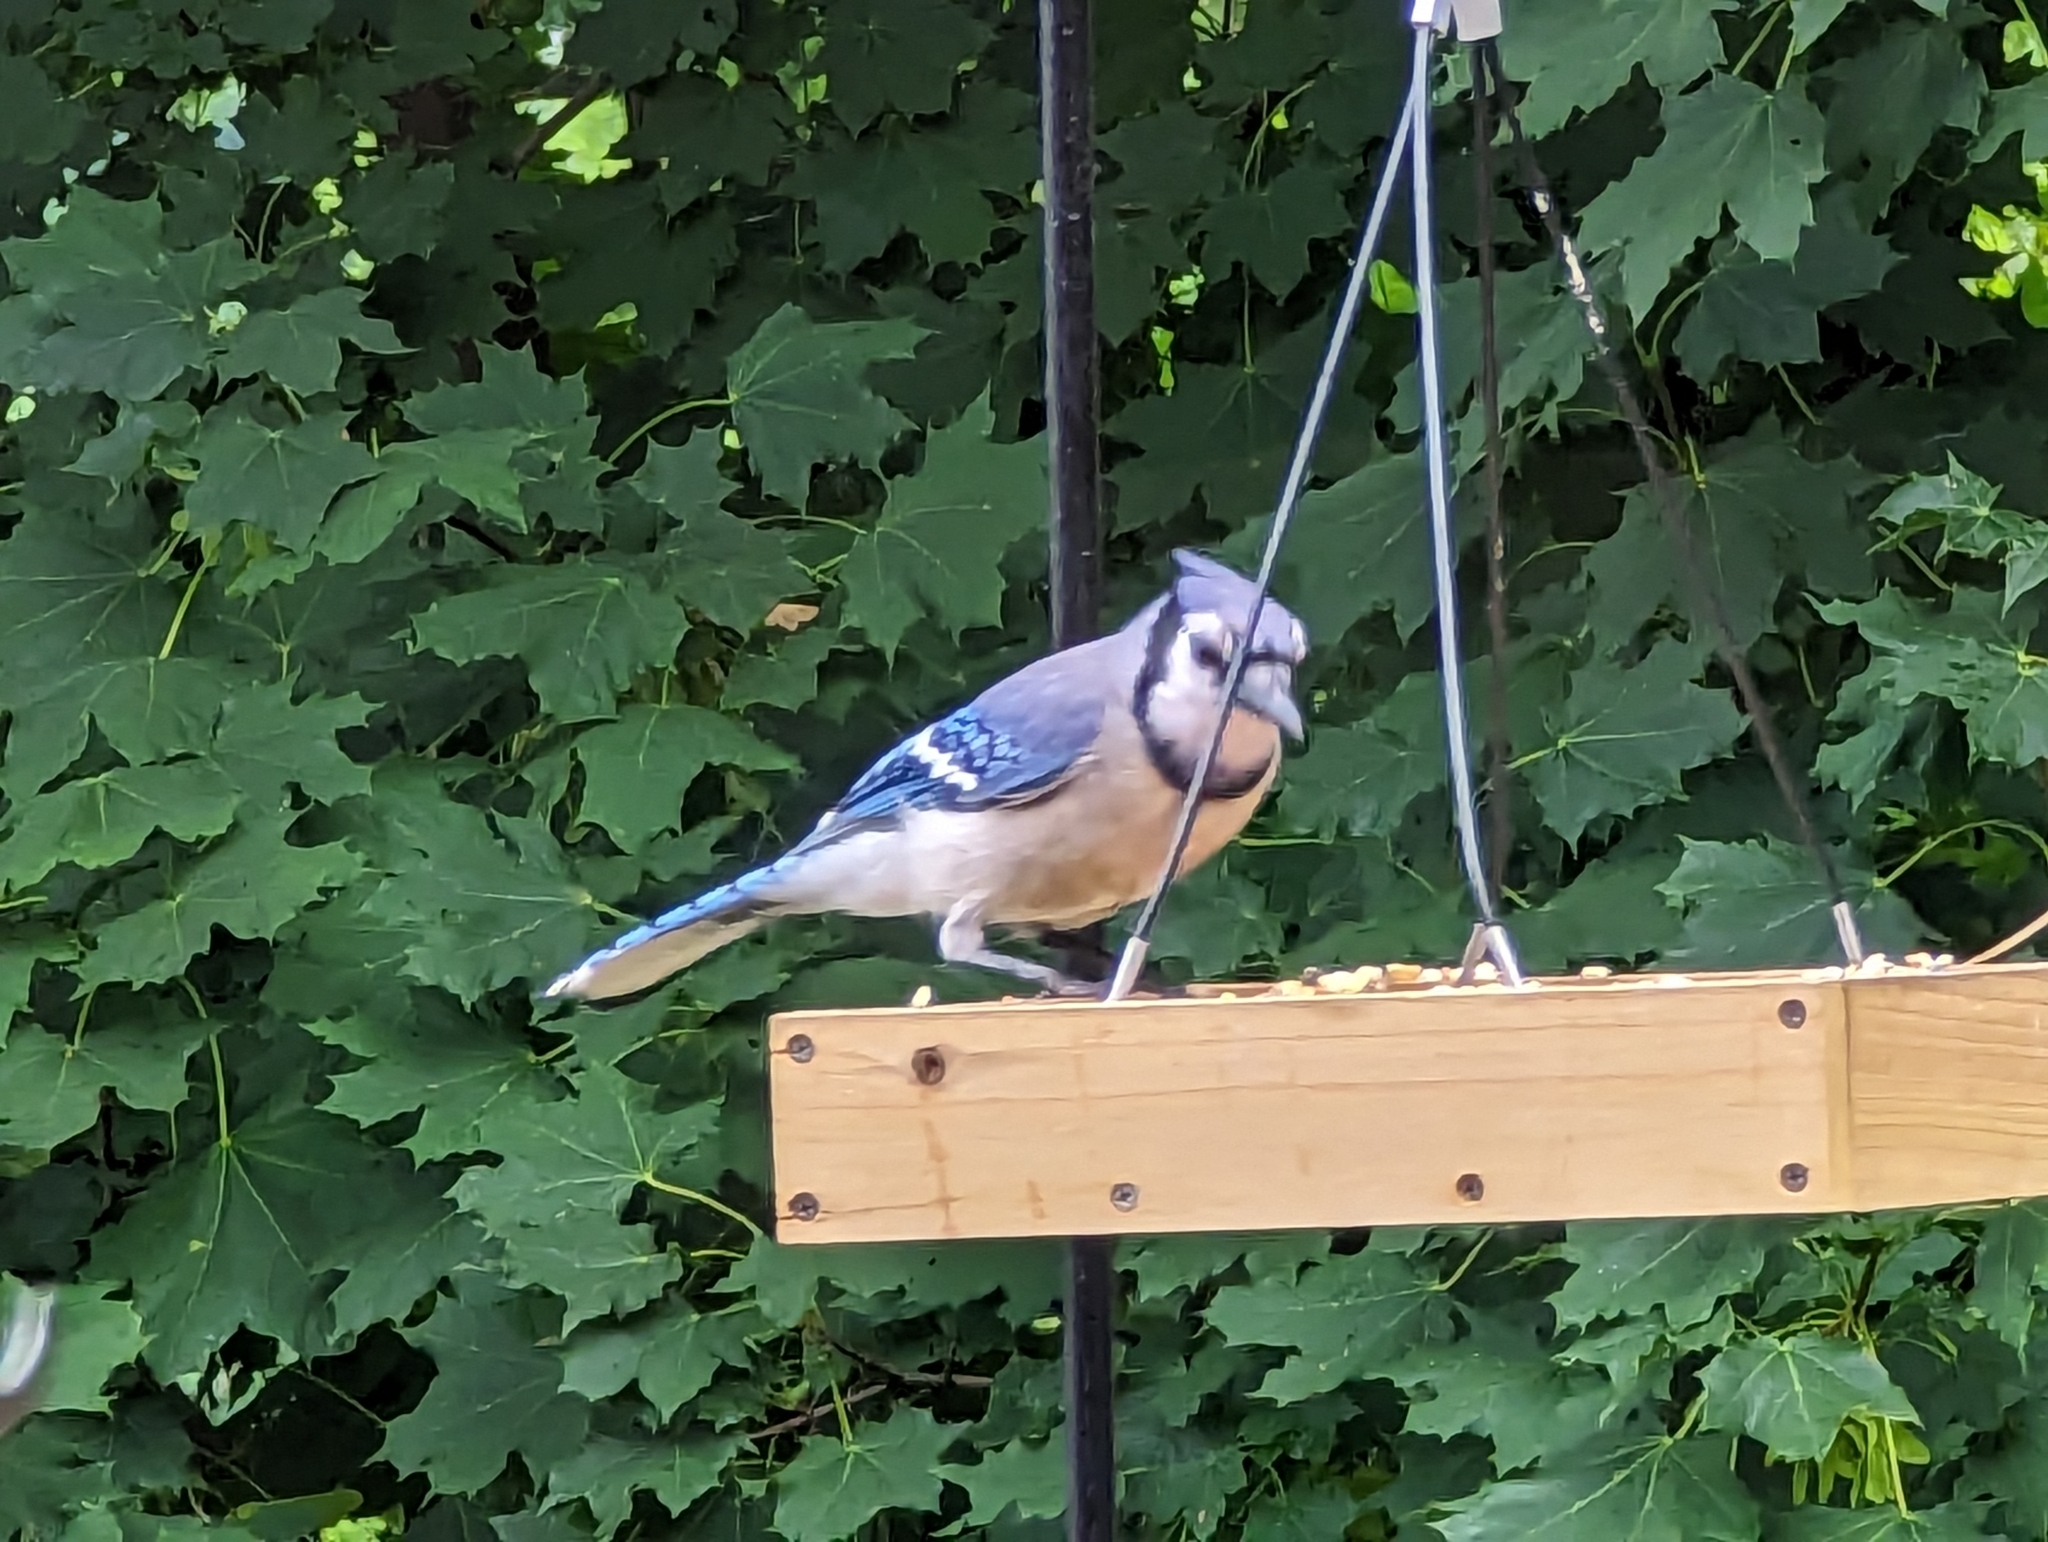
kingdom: Animalia
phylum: Chordata
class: Aves
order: Passeriformes
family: Corvidae
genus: Cyanocitta
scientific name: Cyanocitta cristata
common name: Blue jay
